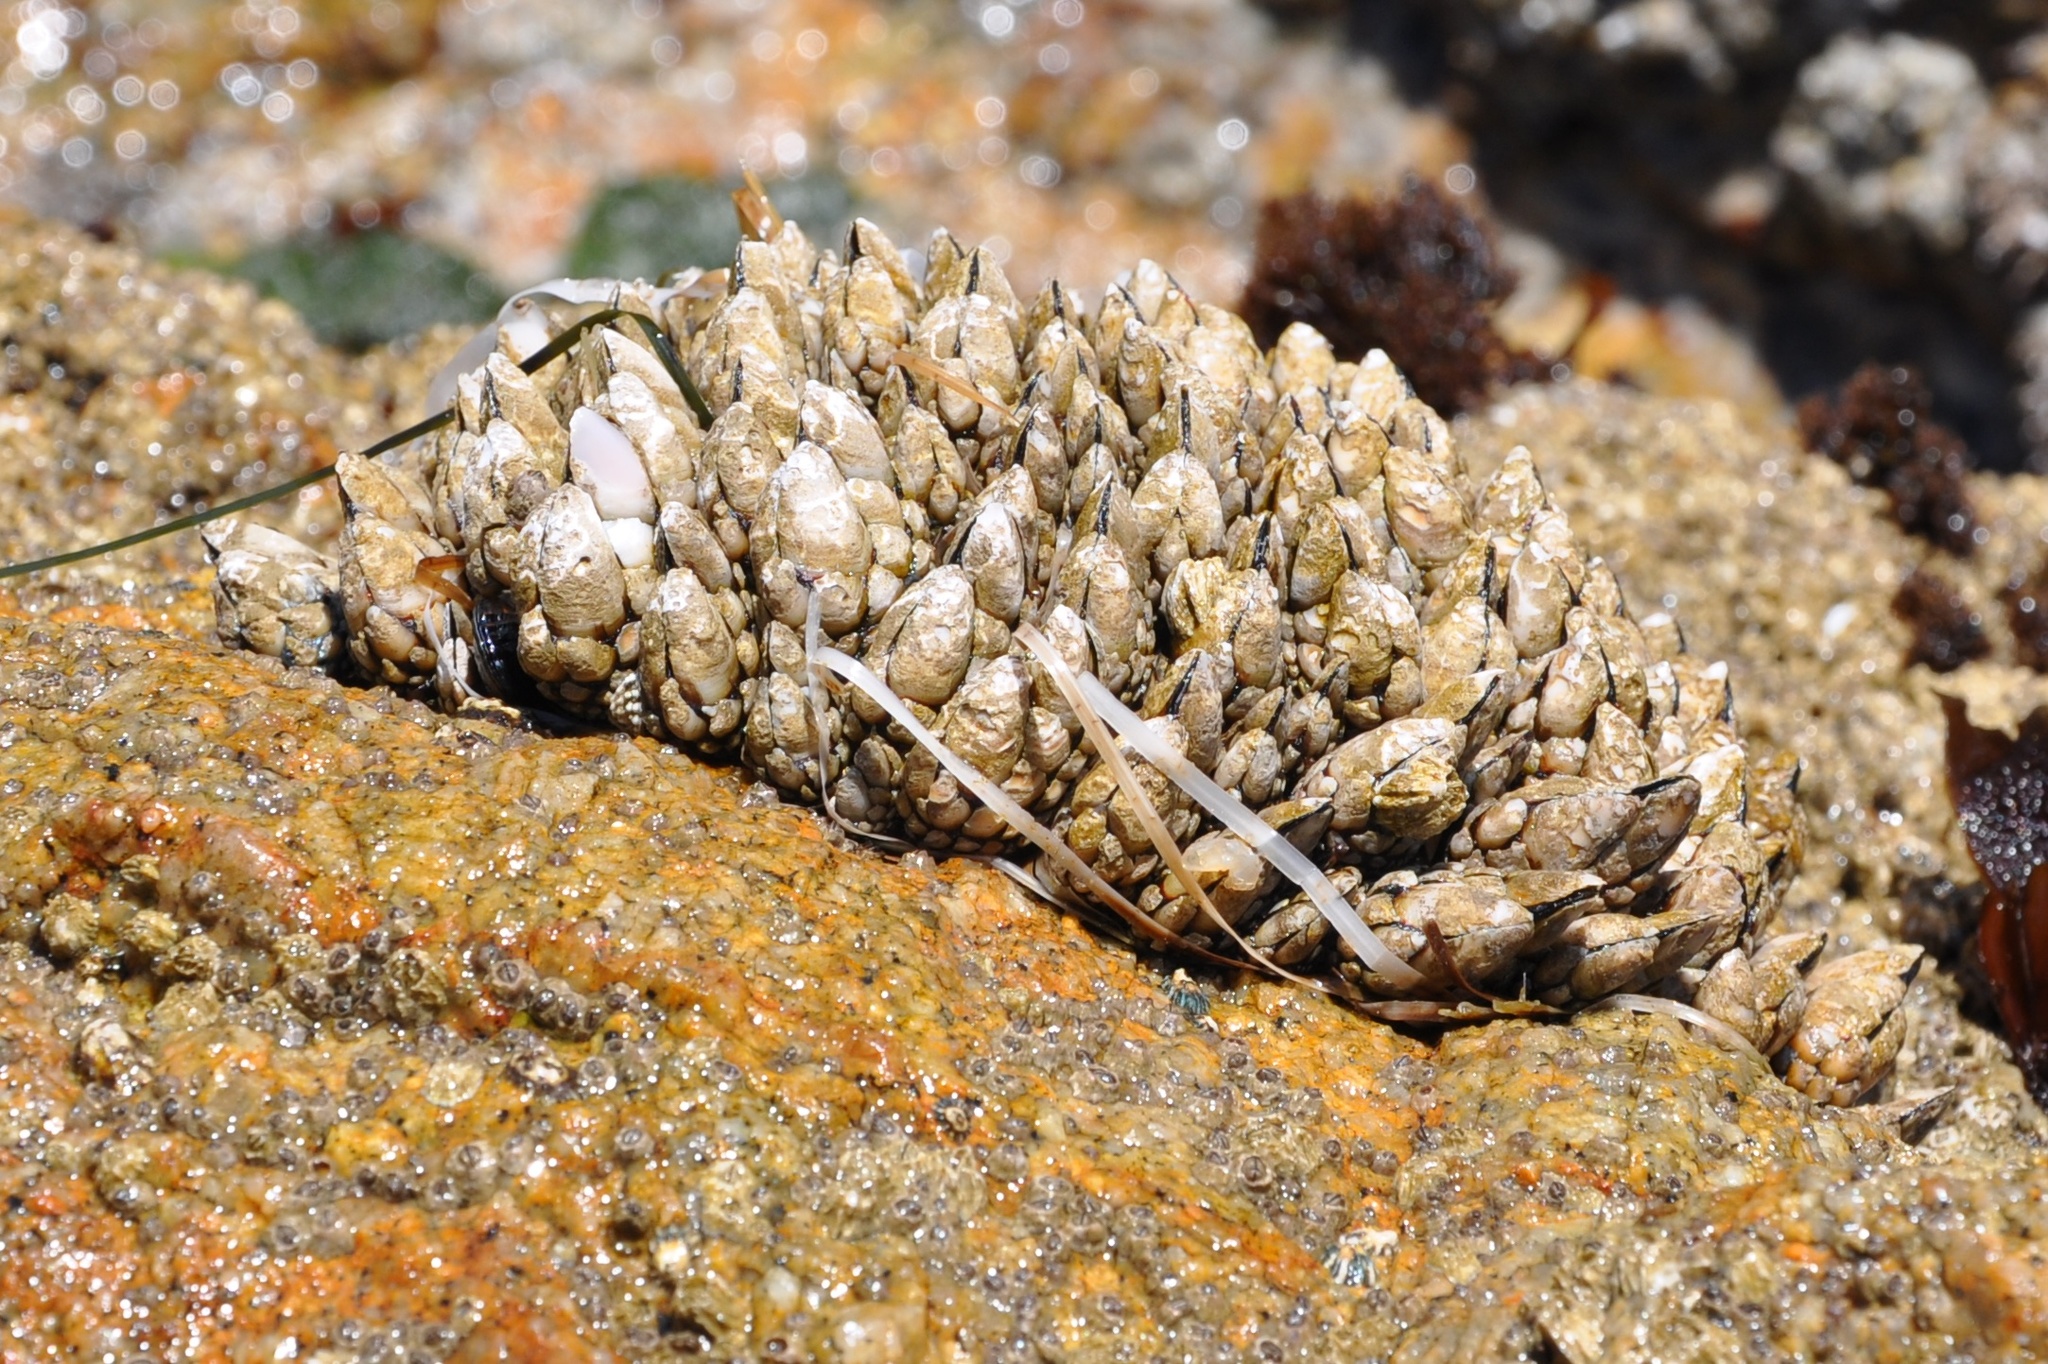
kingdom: Animalia
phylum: Arthropoda
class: Maxillopoda
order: Pedunculata
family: Pollicipedidae
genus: Pollicipes
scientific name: Pollicipes polymerus
